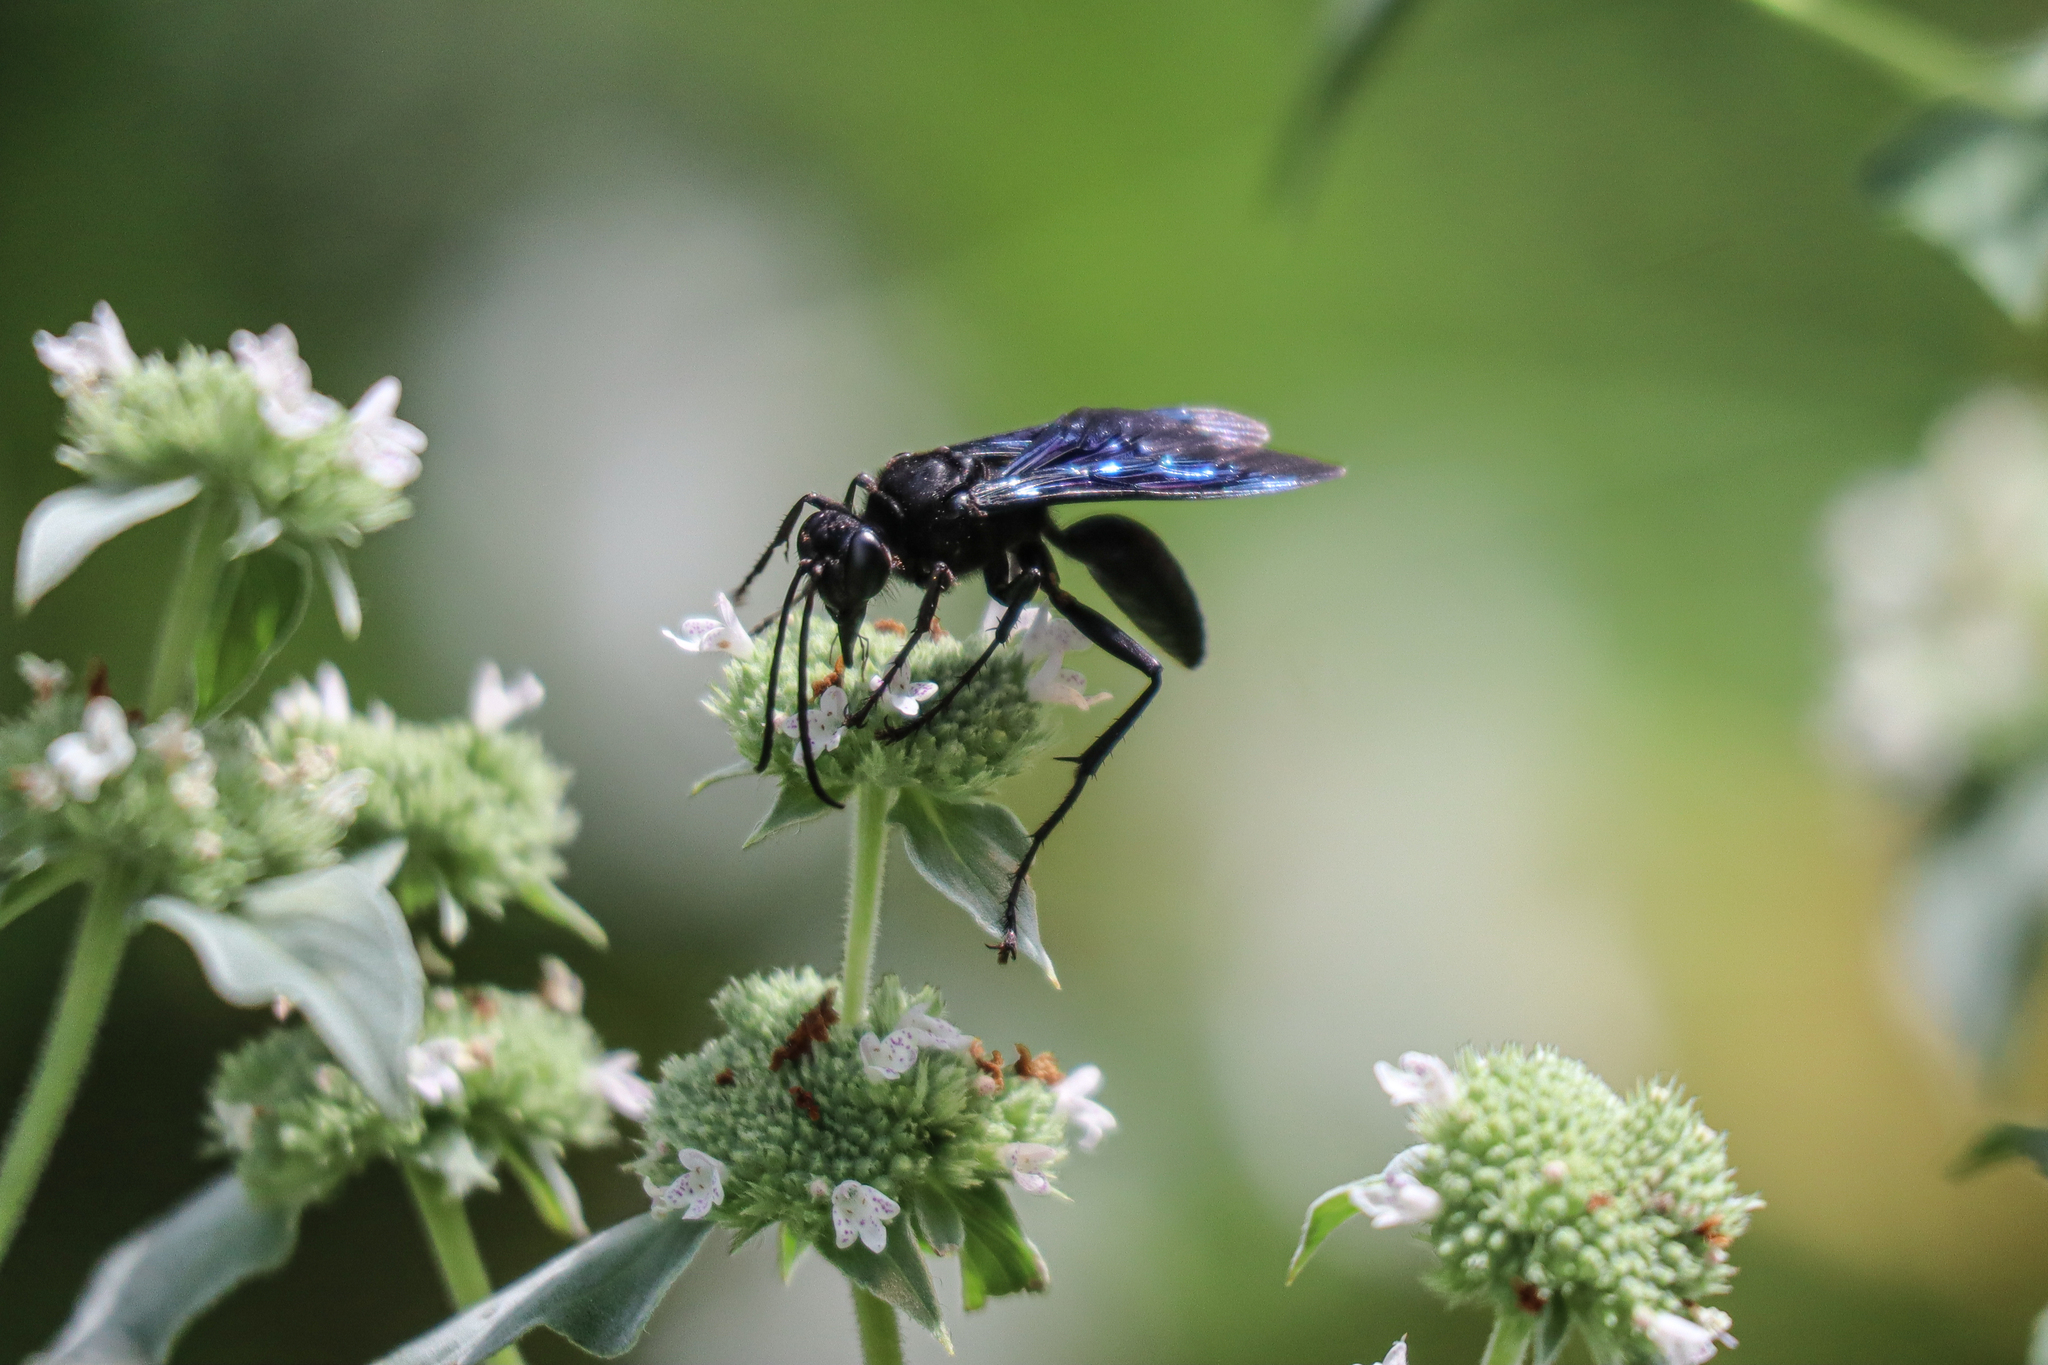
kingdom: Animalia
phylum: Arthropoda
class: Insecta
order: Hymenoptera
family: Sphecidae
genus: Sphex
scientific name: Sphex pensylvanicus
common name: Great black digger wasp
